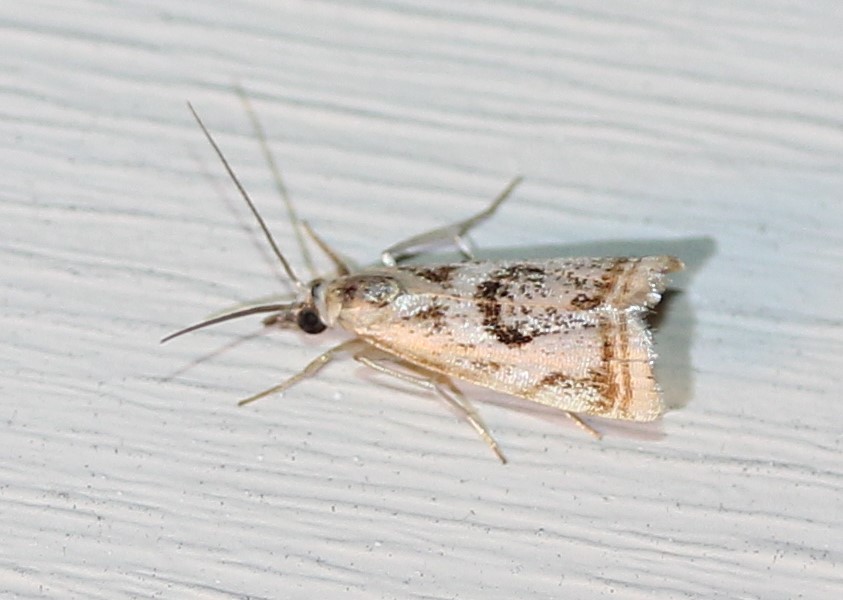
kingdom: Animalia
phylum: Arthropoda
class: Insecta
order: Lepidoptera
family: Crambidae
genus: Microcrambus
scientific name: Microcrambus elegans
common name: Elegant grass-veneer
